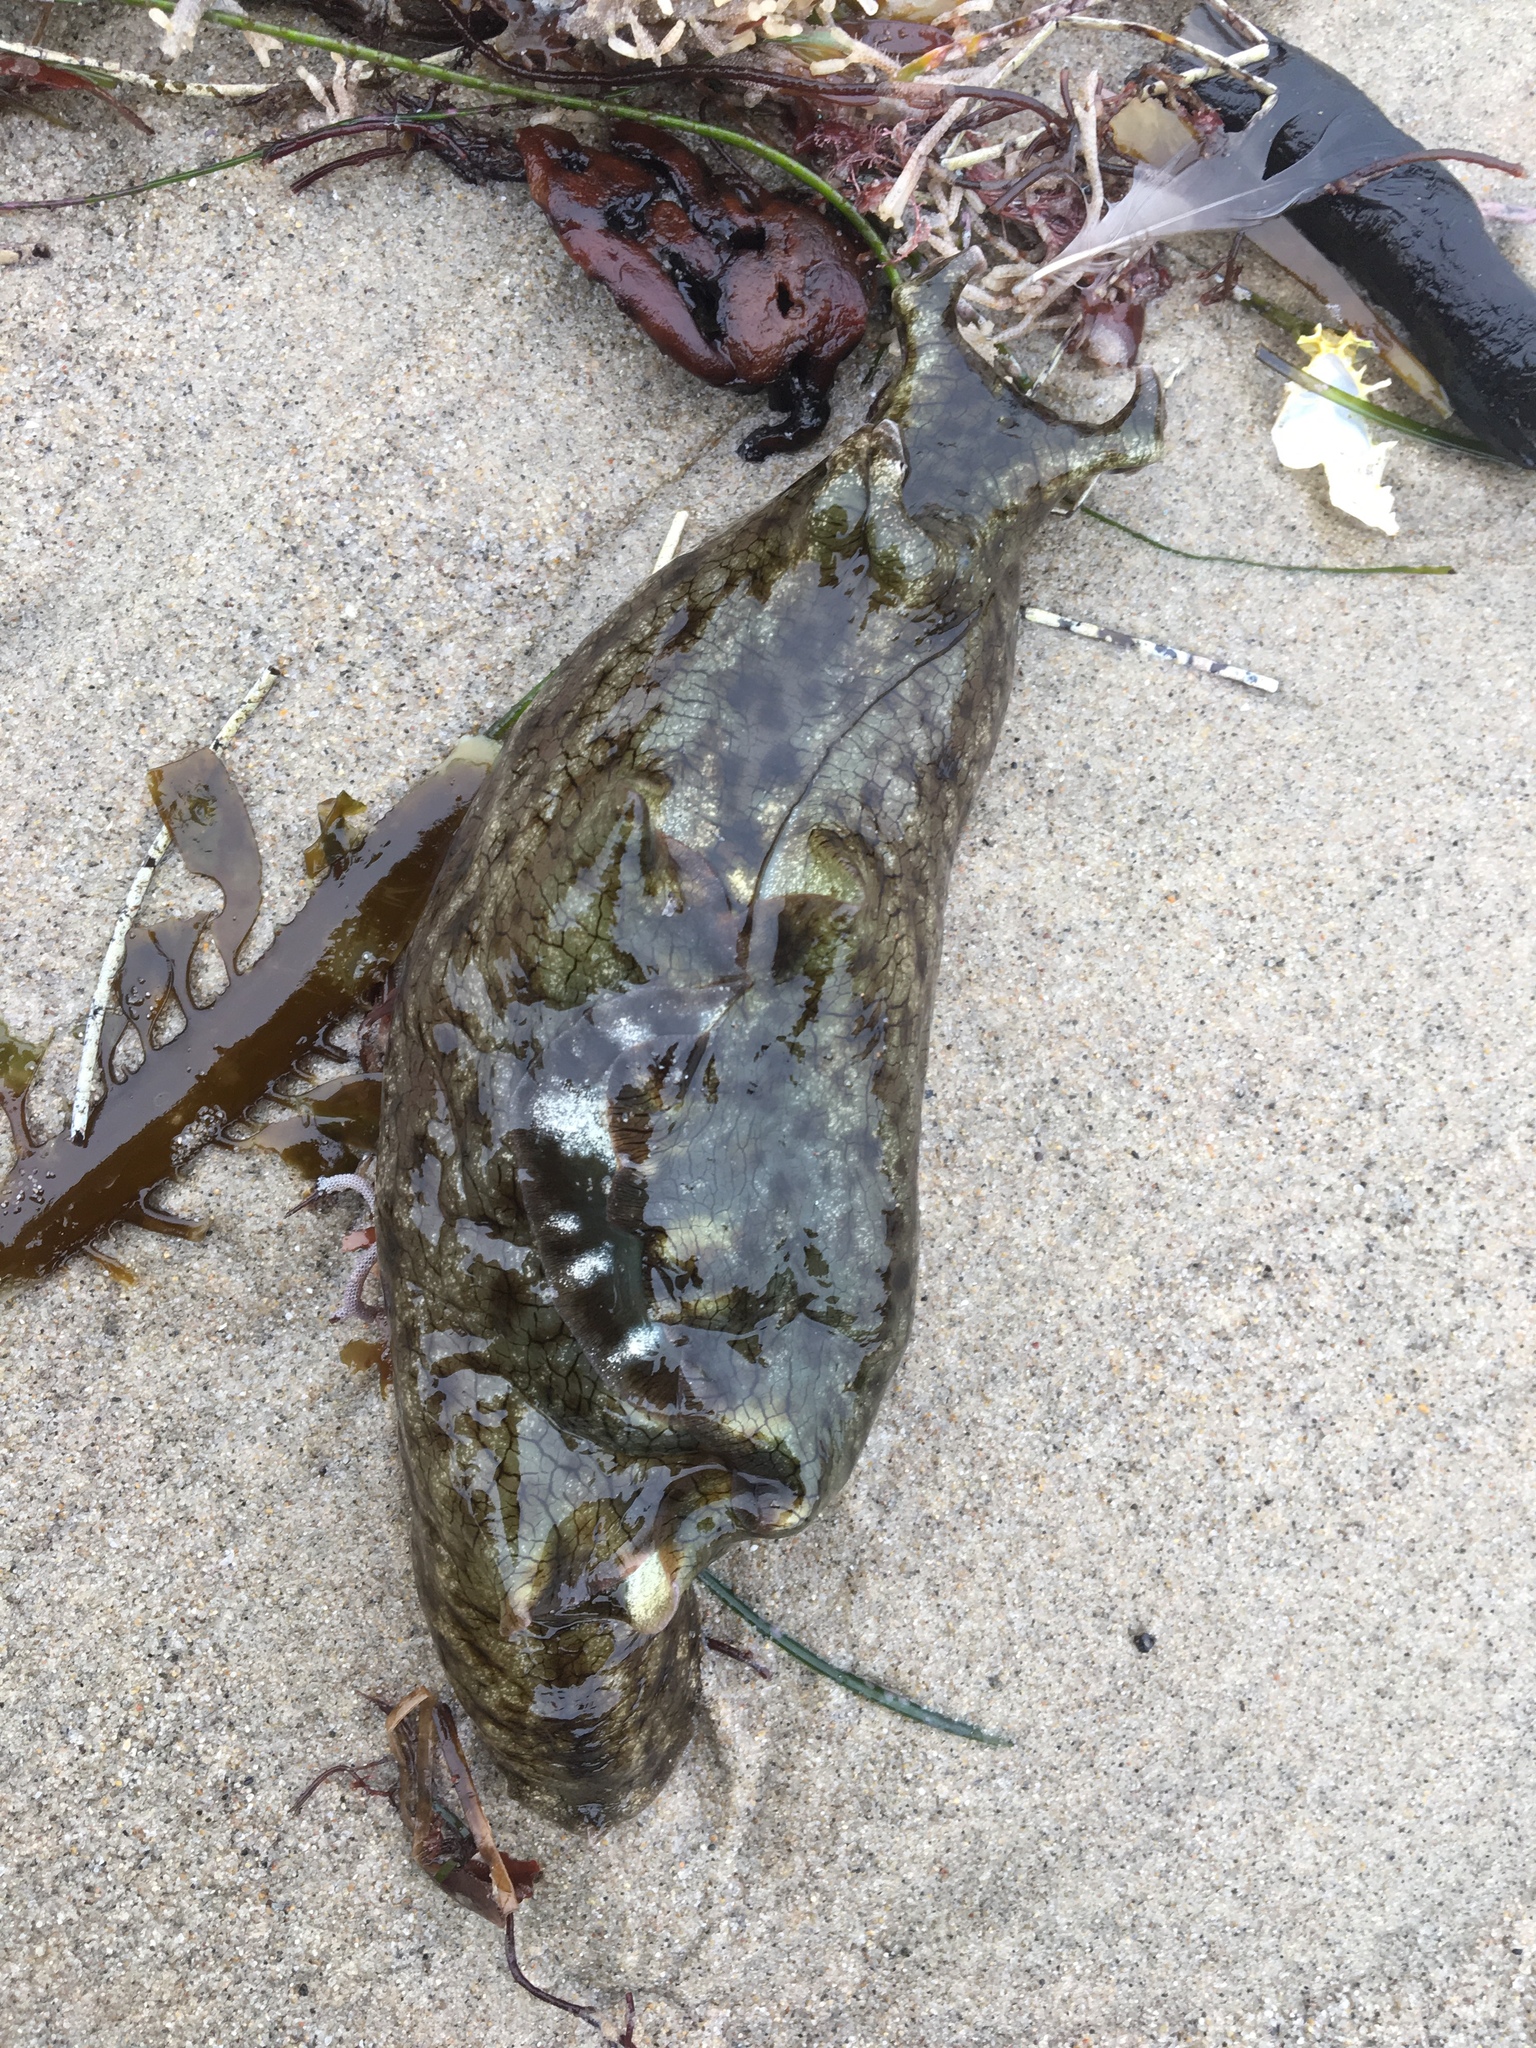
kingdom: Animalia
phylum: Mollusca
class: Gastropoda
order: Aplysiida
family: Aplysiidae
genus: Aplysia
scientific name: Aplysia californica
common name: California seahare
